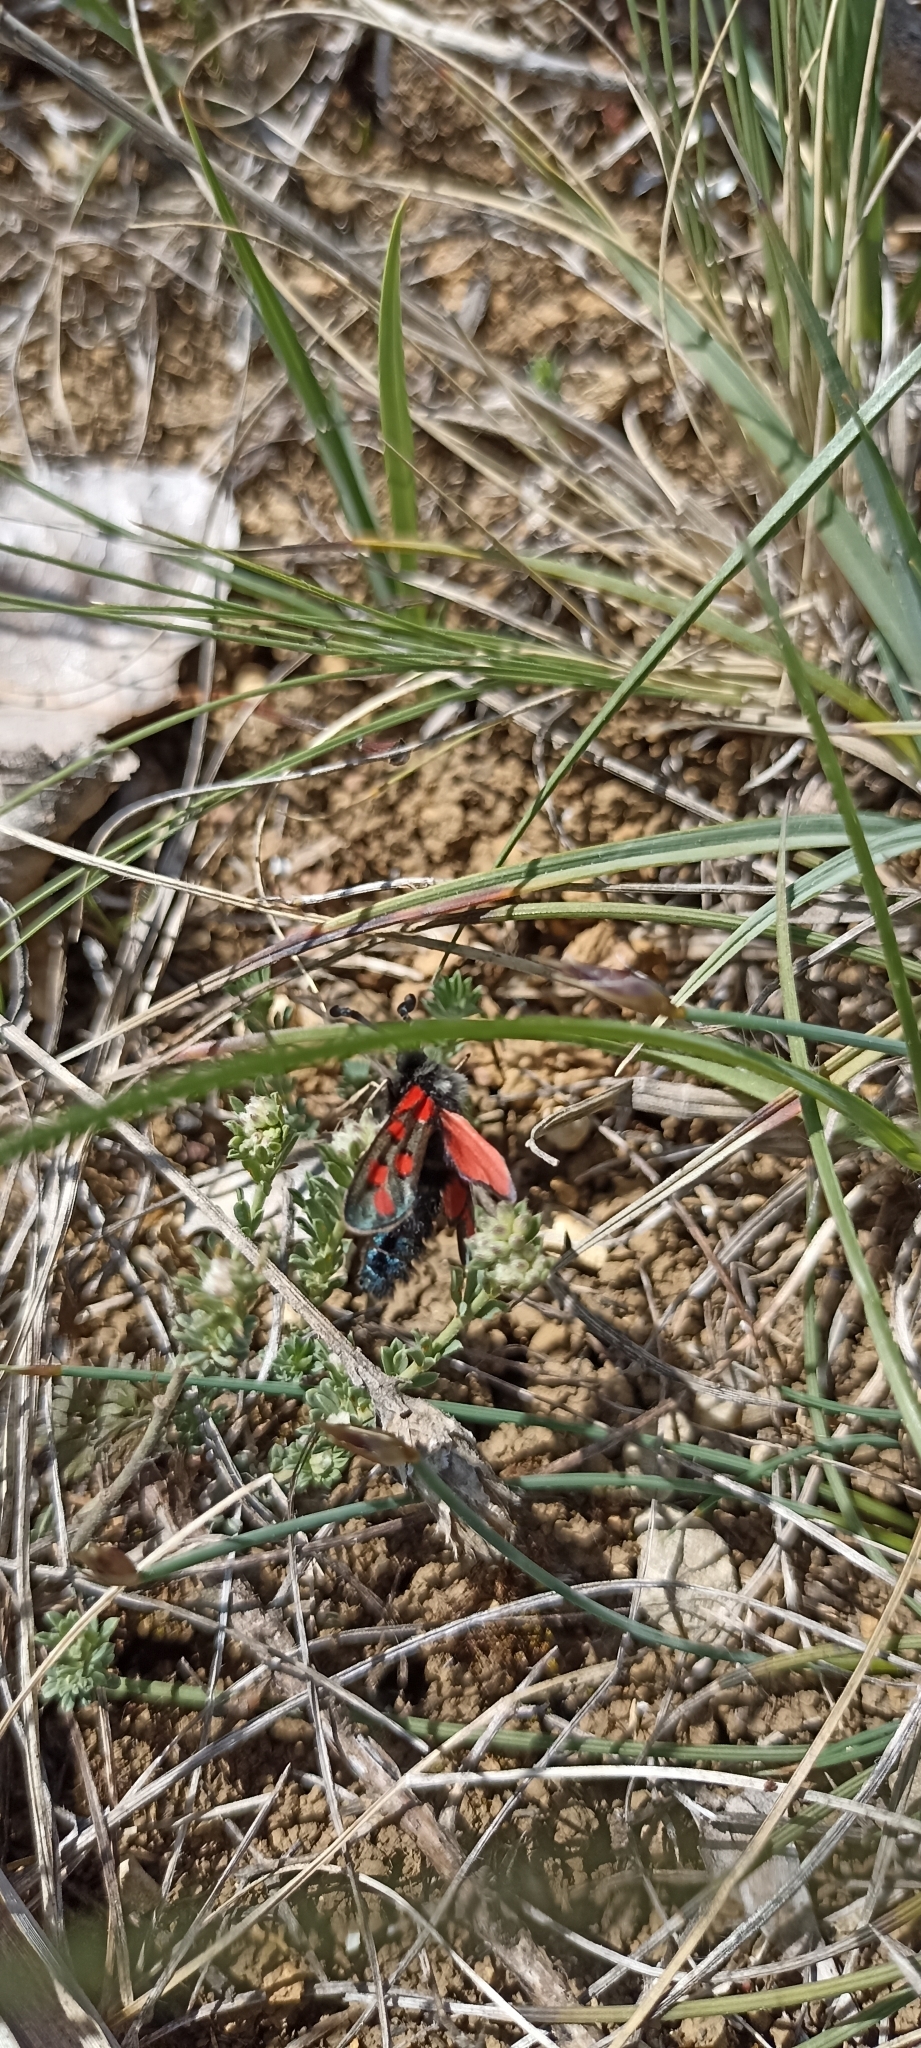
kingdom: Animalia
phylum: Arthropoda
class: Insecta
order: Lepidoptera
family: Zygaenidae
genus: Zygaena
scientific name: Zygaena rhadamanthus
